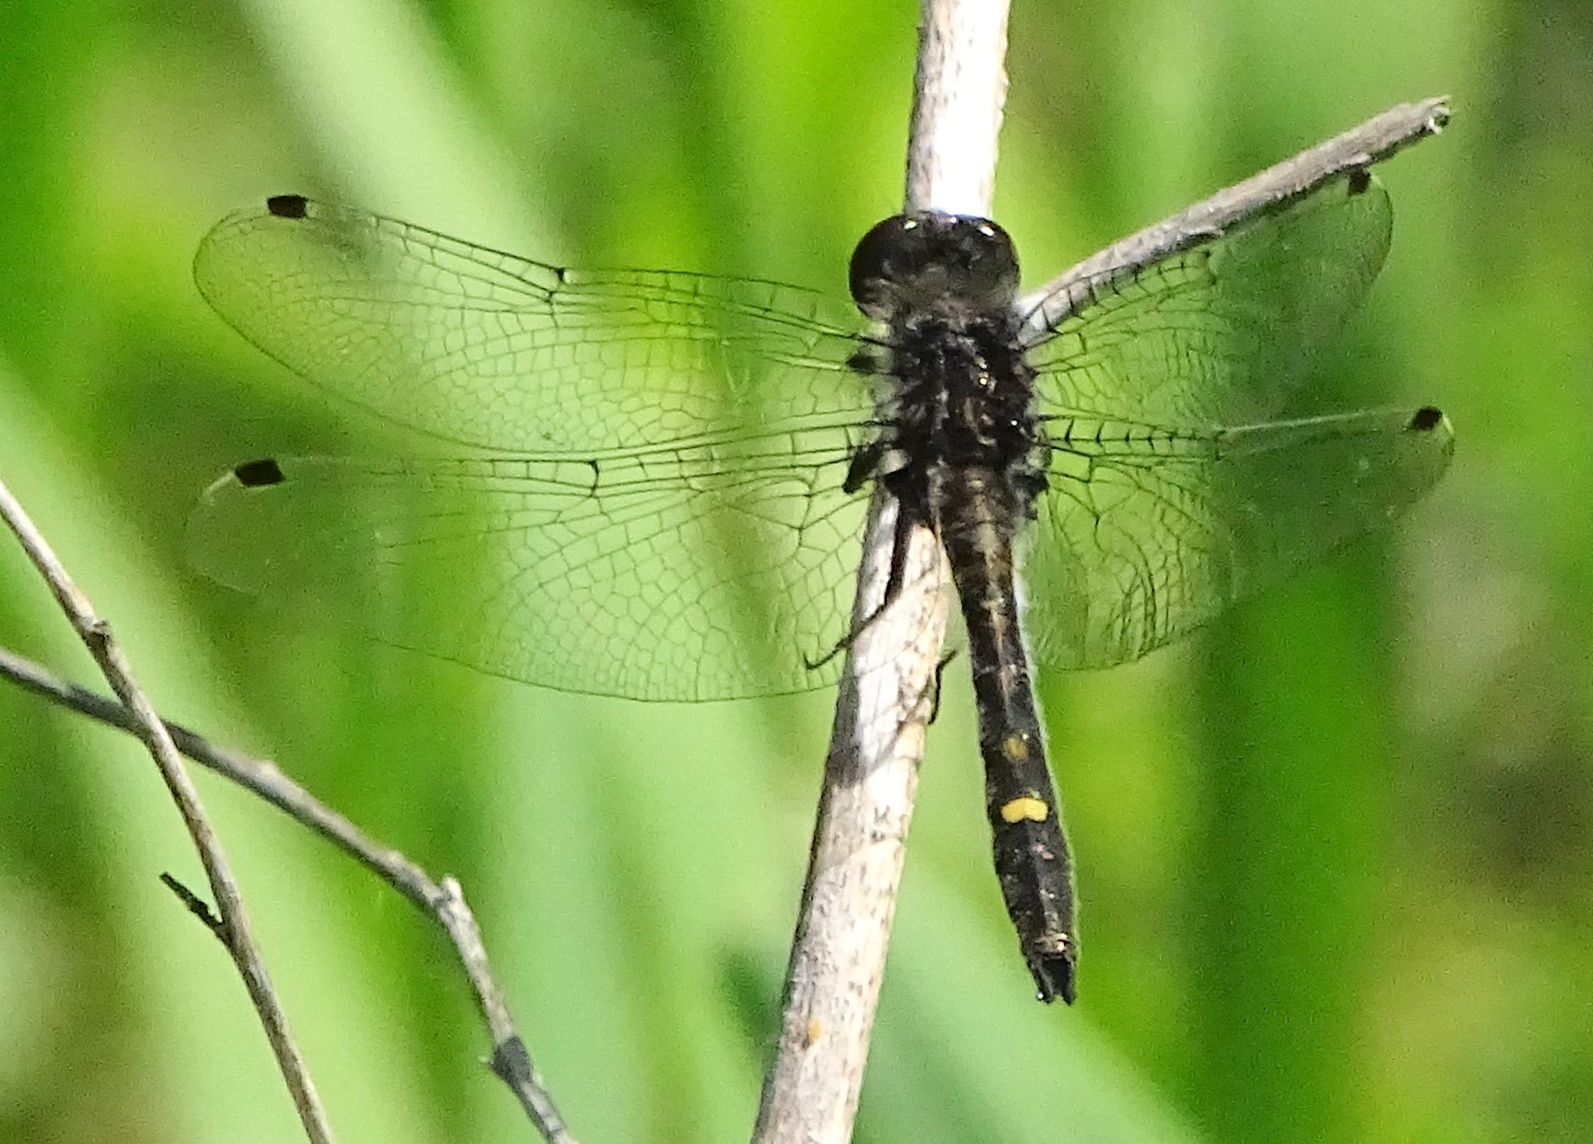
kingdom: Animalia
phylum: Arthropoda
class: Insecta
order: Odonata
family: Libellulidae
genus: Leucorrhinia
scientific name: Leucorrhinia intacta
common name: Dot-tailed whiteface
